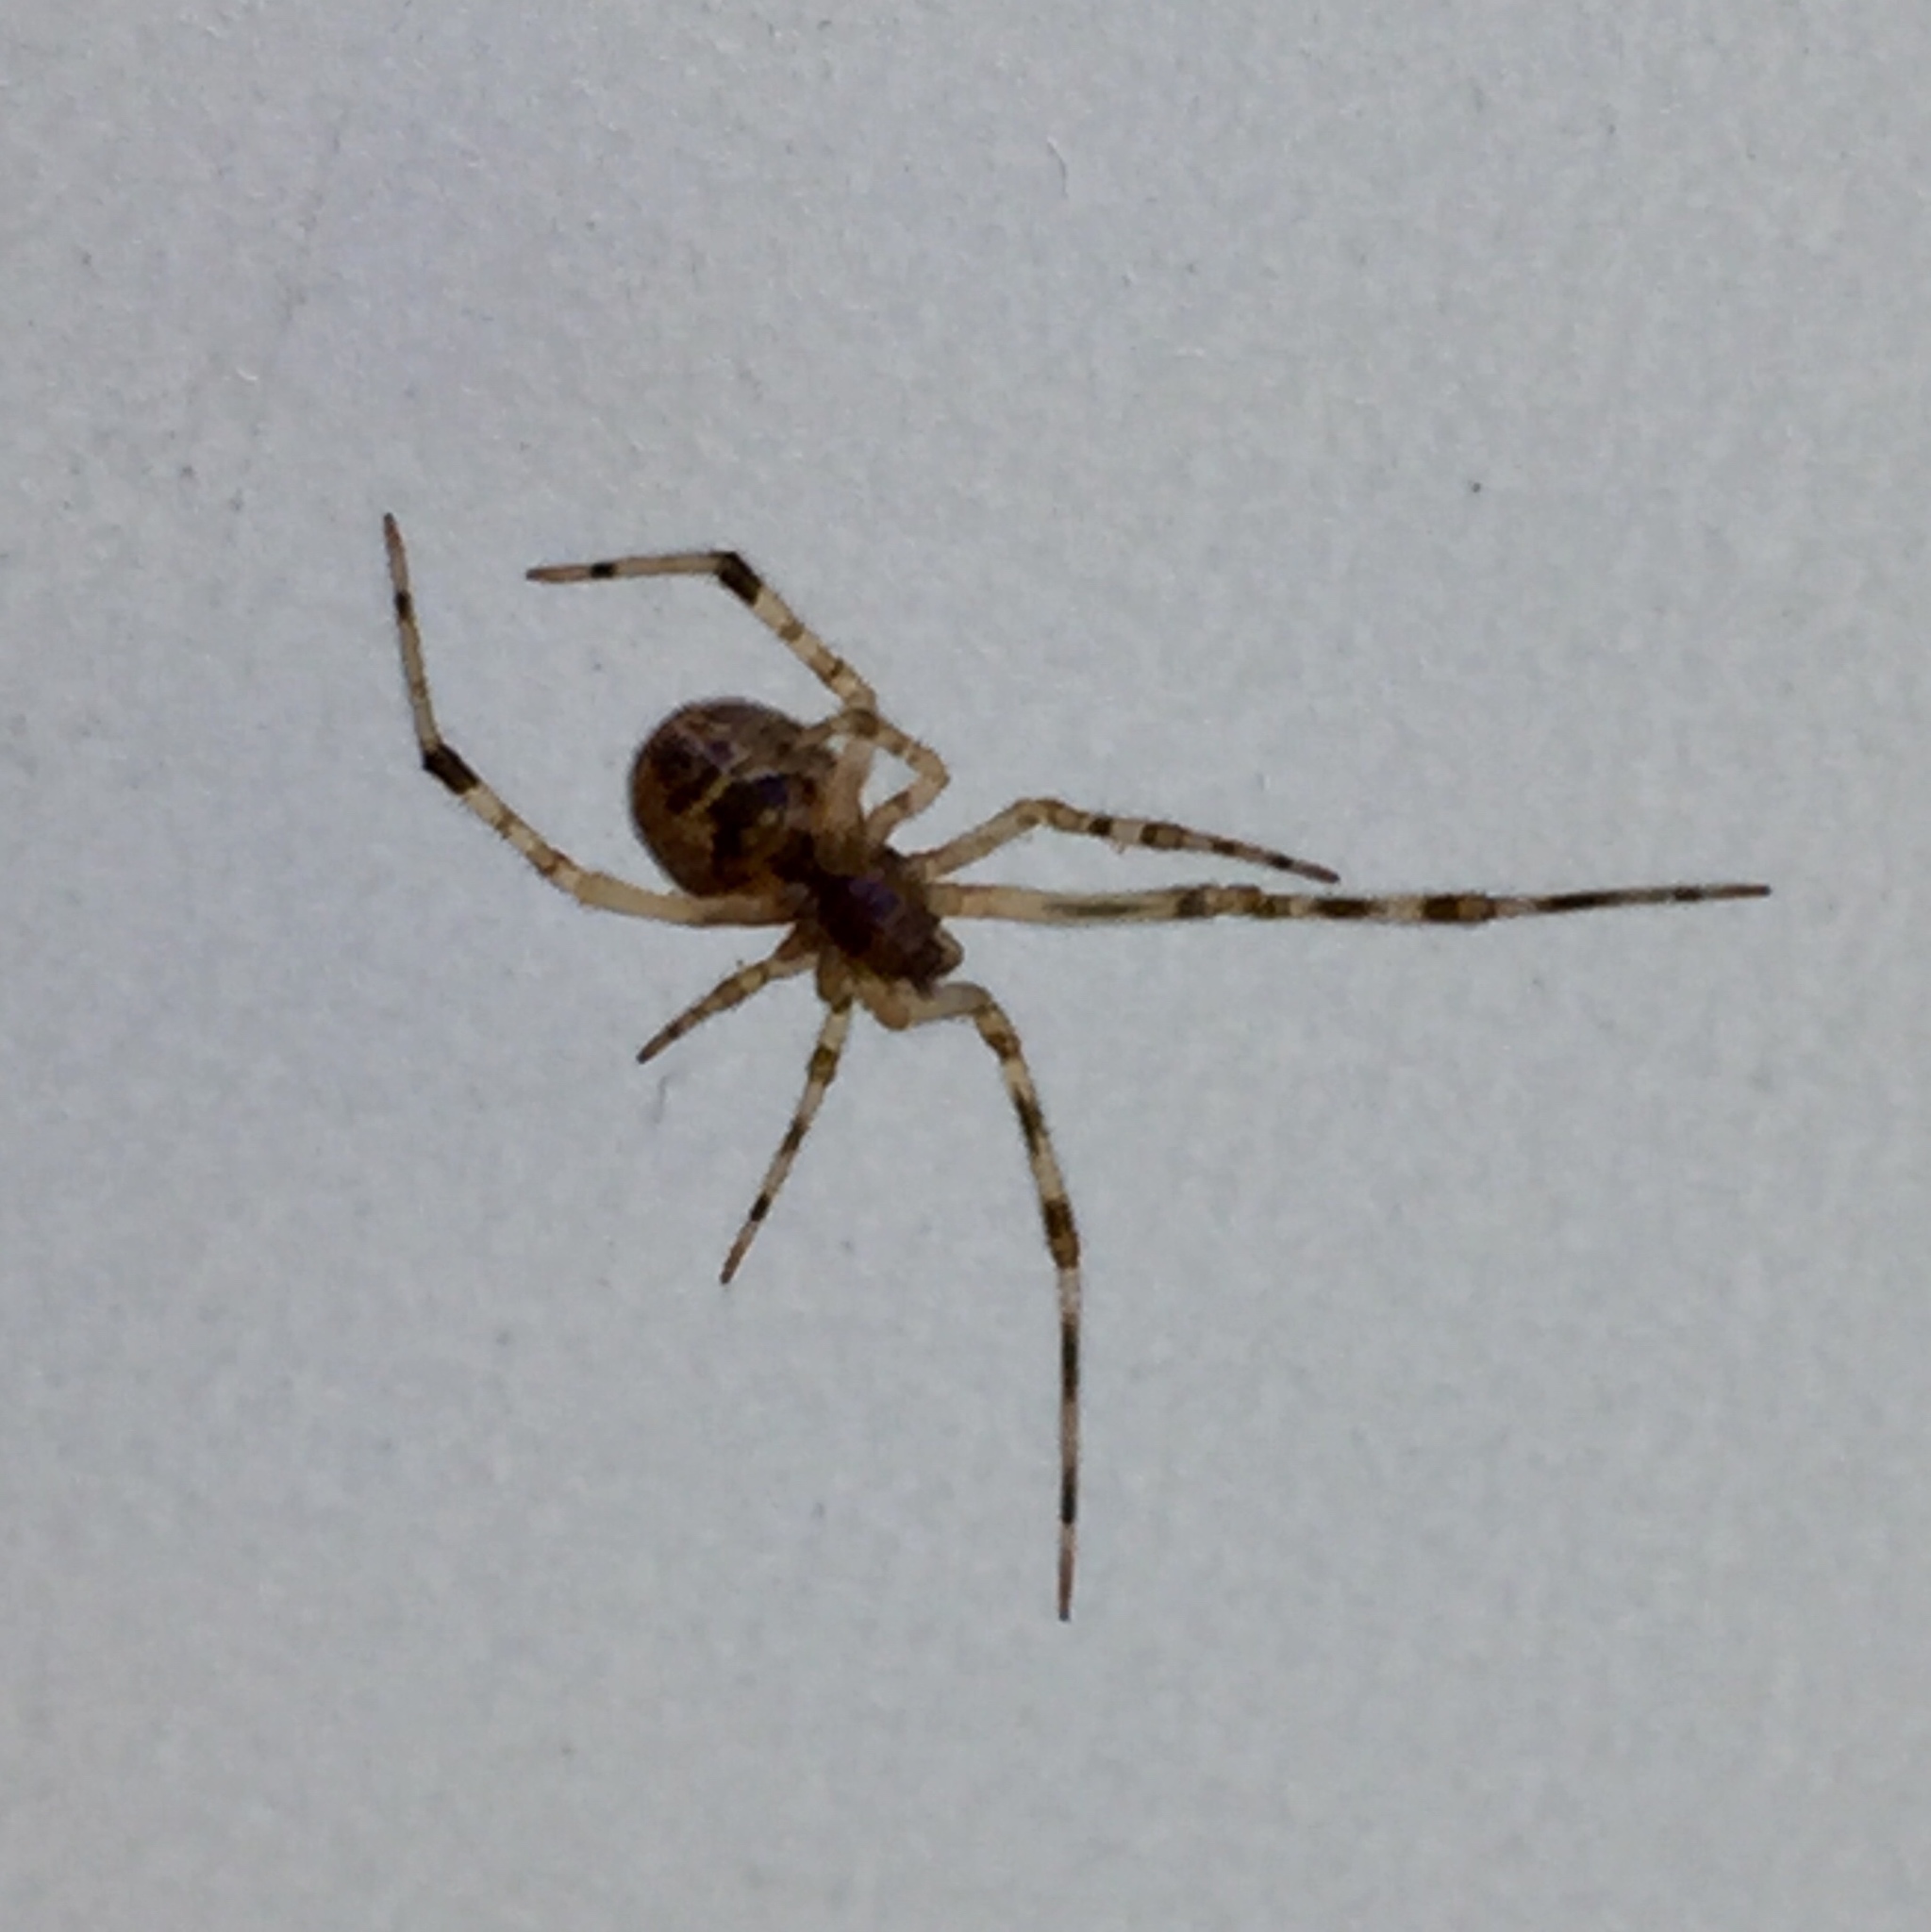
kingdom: Animalia
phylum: Arthropoda
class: Arachnida
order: Araneae
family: Theridiidae
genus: Parasteatoda
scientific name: Parasteatoda tepidariorum
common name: Common house spider
